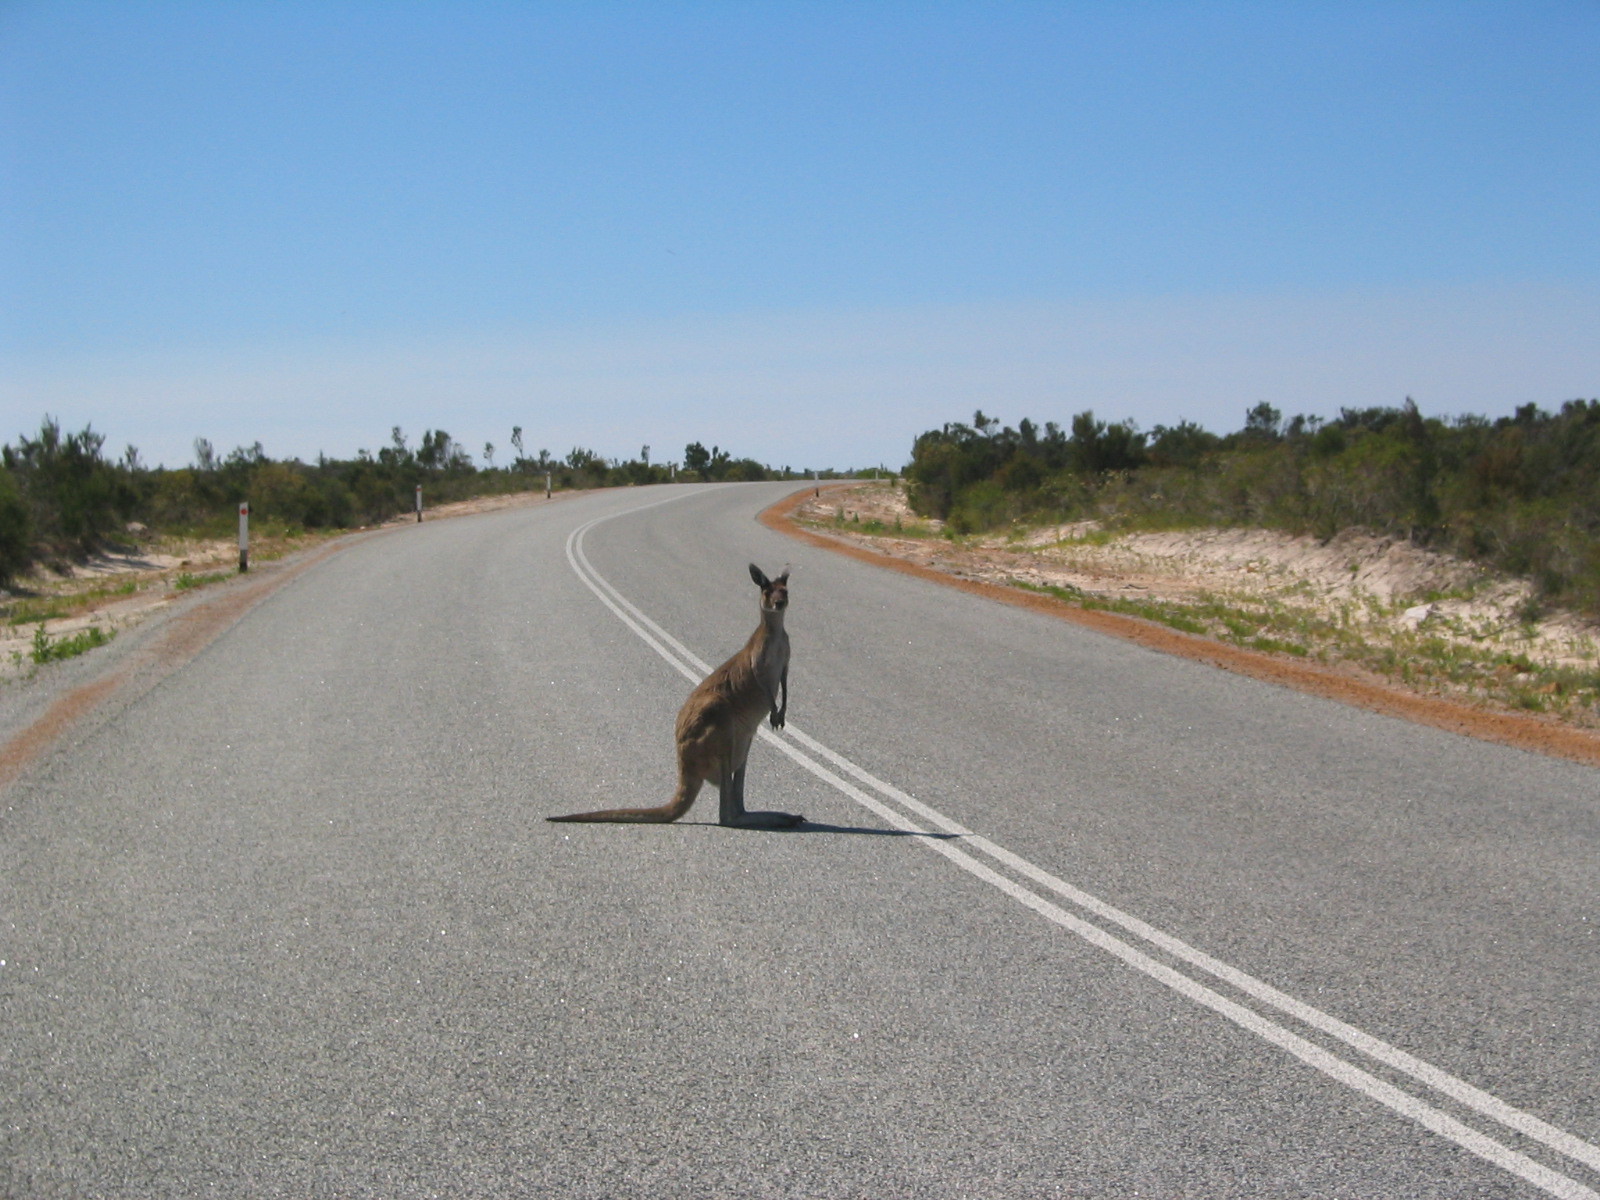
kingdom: Animalia
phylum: Chordata
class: Mammalia
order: Diprotodontia
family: Macropodidae
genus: Macropus
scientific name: Macropus fuliginosus
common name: Western grey kangaroo
